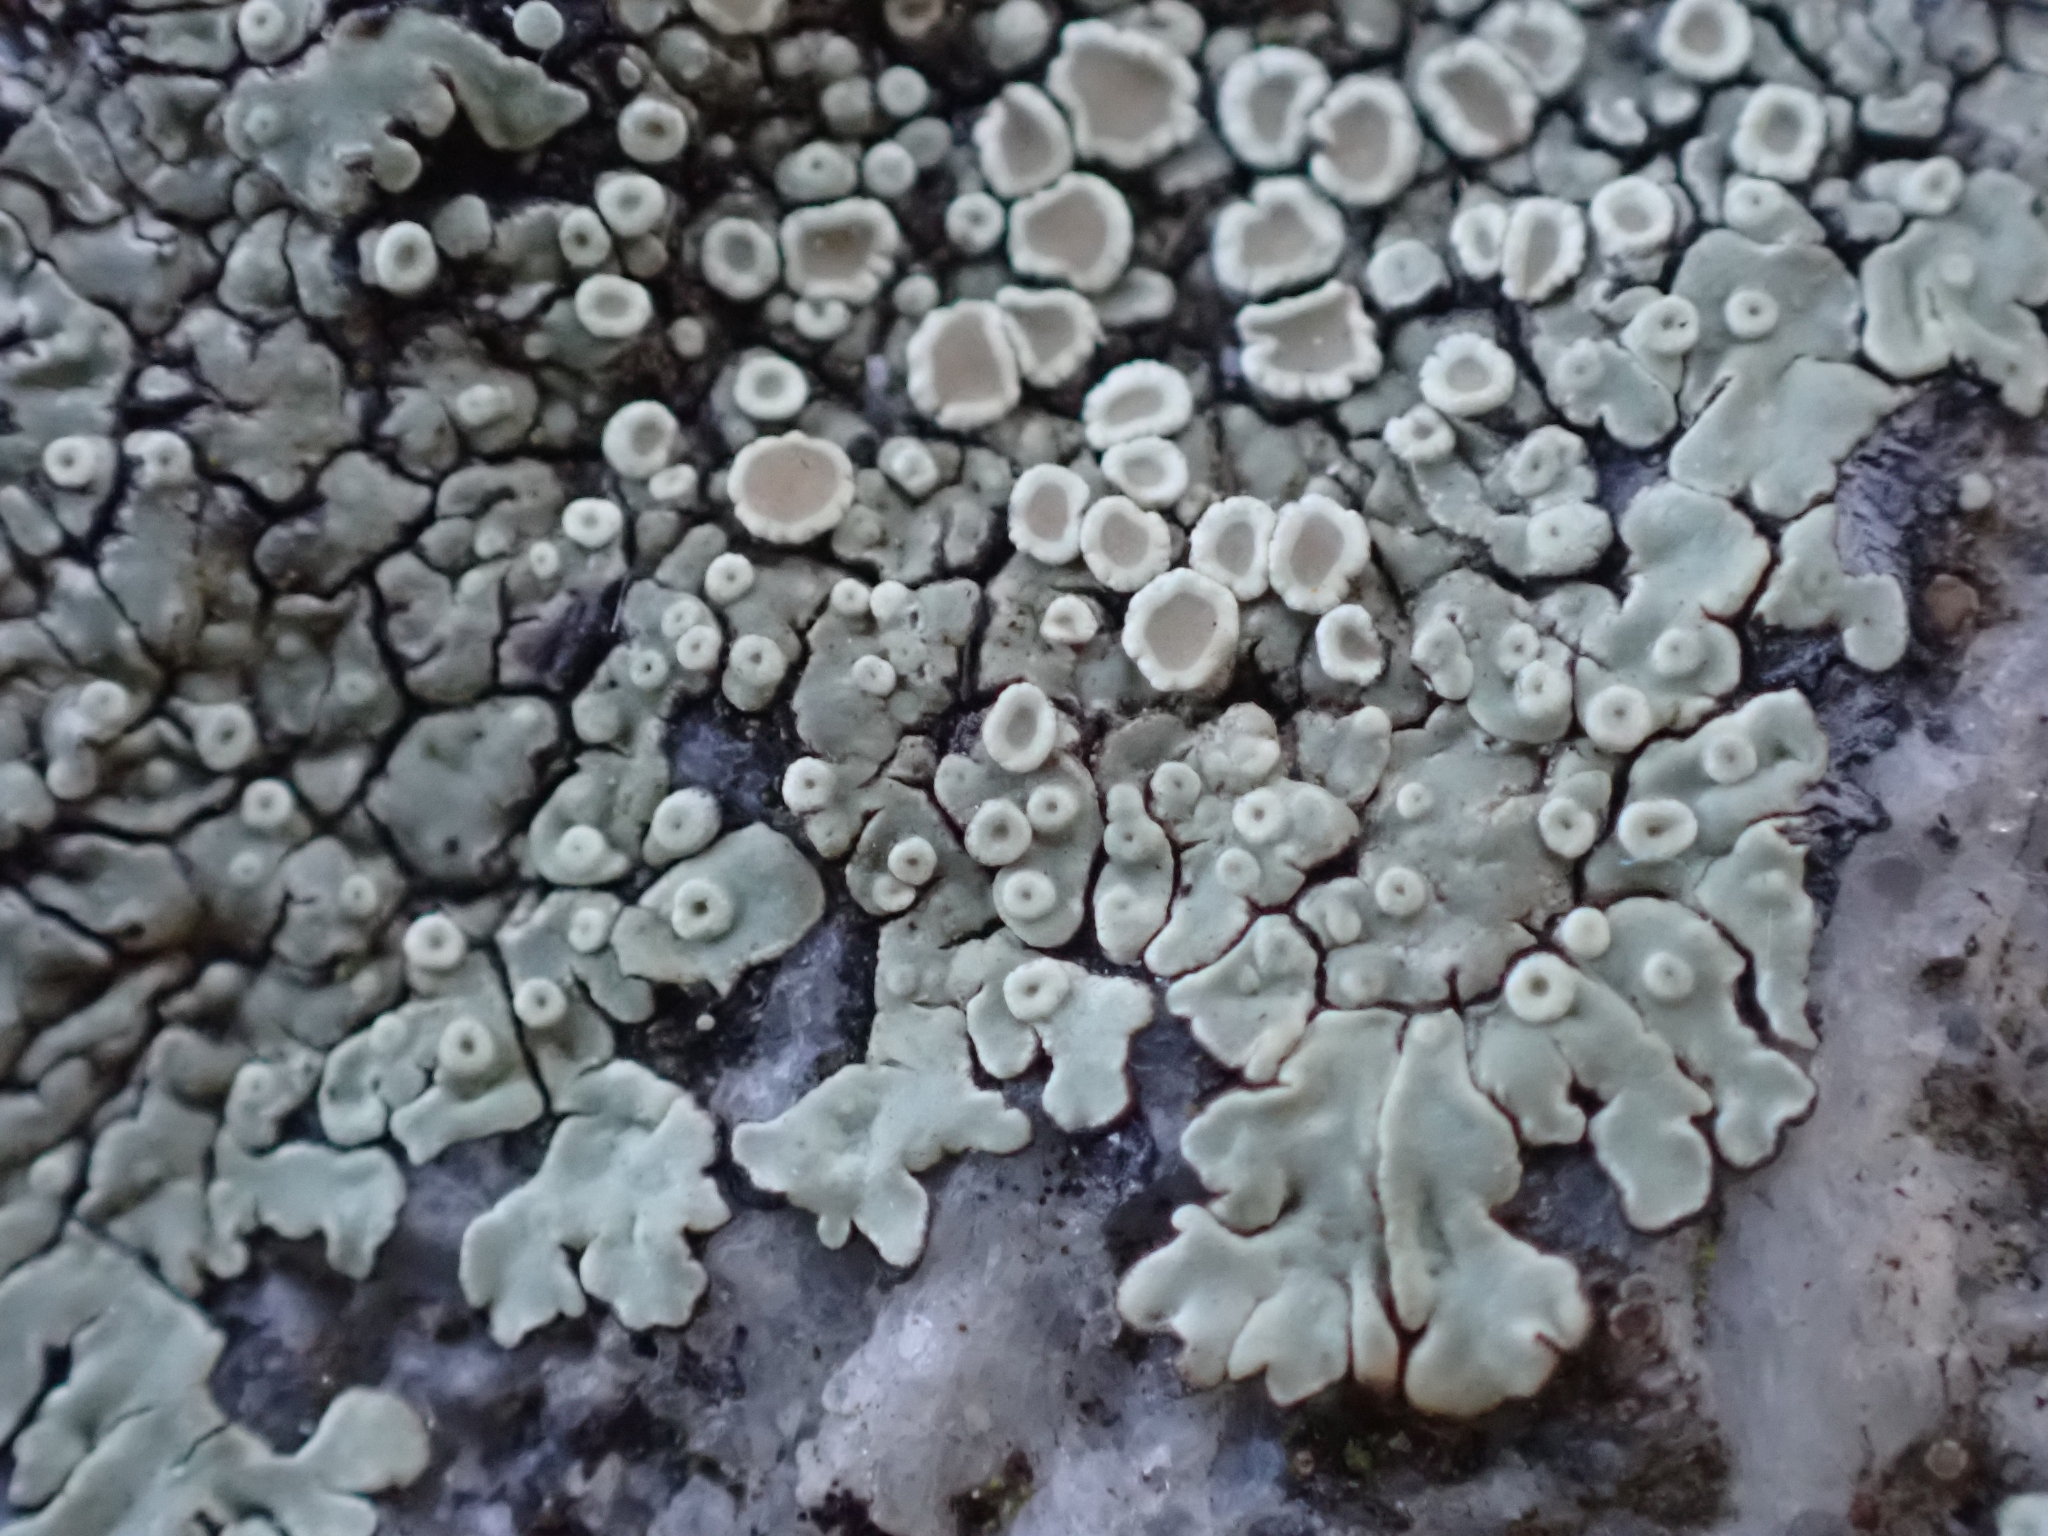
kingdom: Fungi
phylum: Ascomycota
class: Lecanoromycetes
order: Lecanorales
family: Lecanoraceae
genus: Protoparmeliopsis
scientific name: Protoparmeliopsis muralis
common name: Stonewall rim lichen
